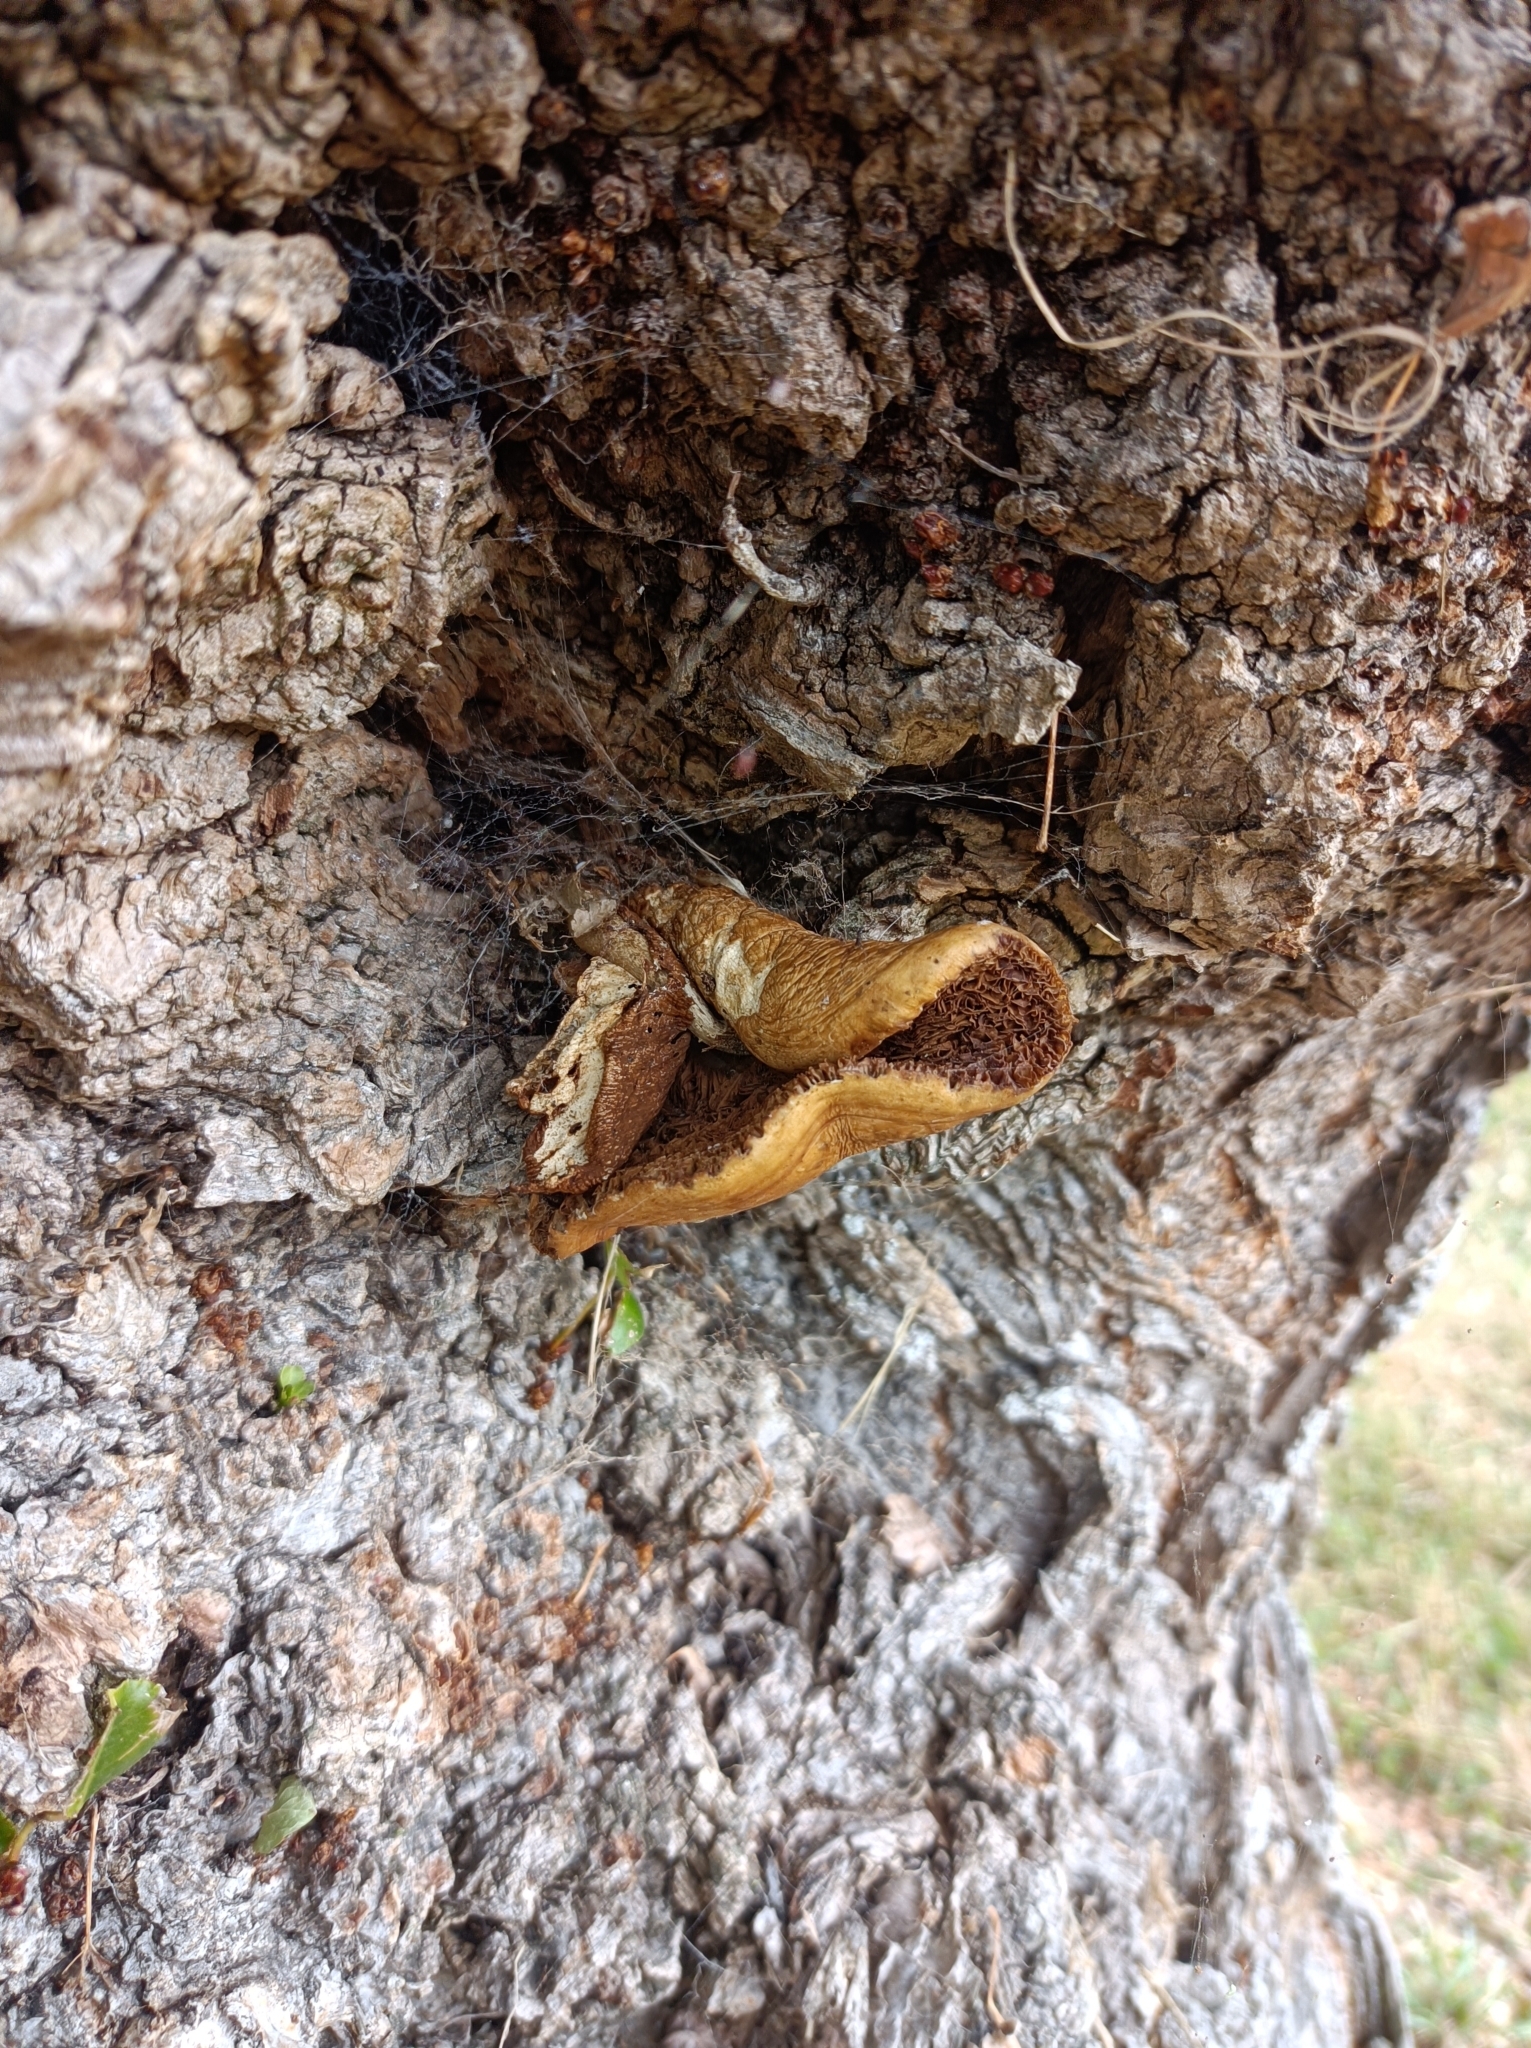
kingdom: Fungi
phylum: Basidiomycota
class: Agaricomycetes
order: Agaricales
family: Tubariaceae
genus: Cyclocybe
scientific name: Cyclocybe parasitica
